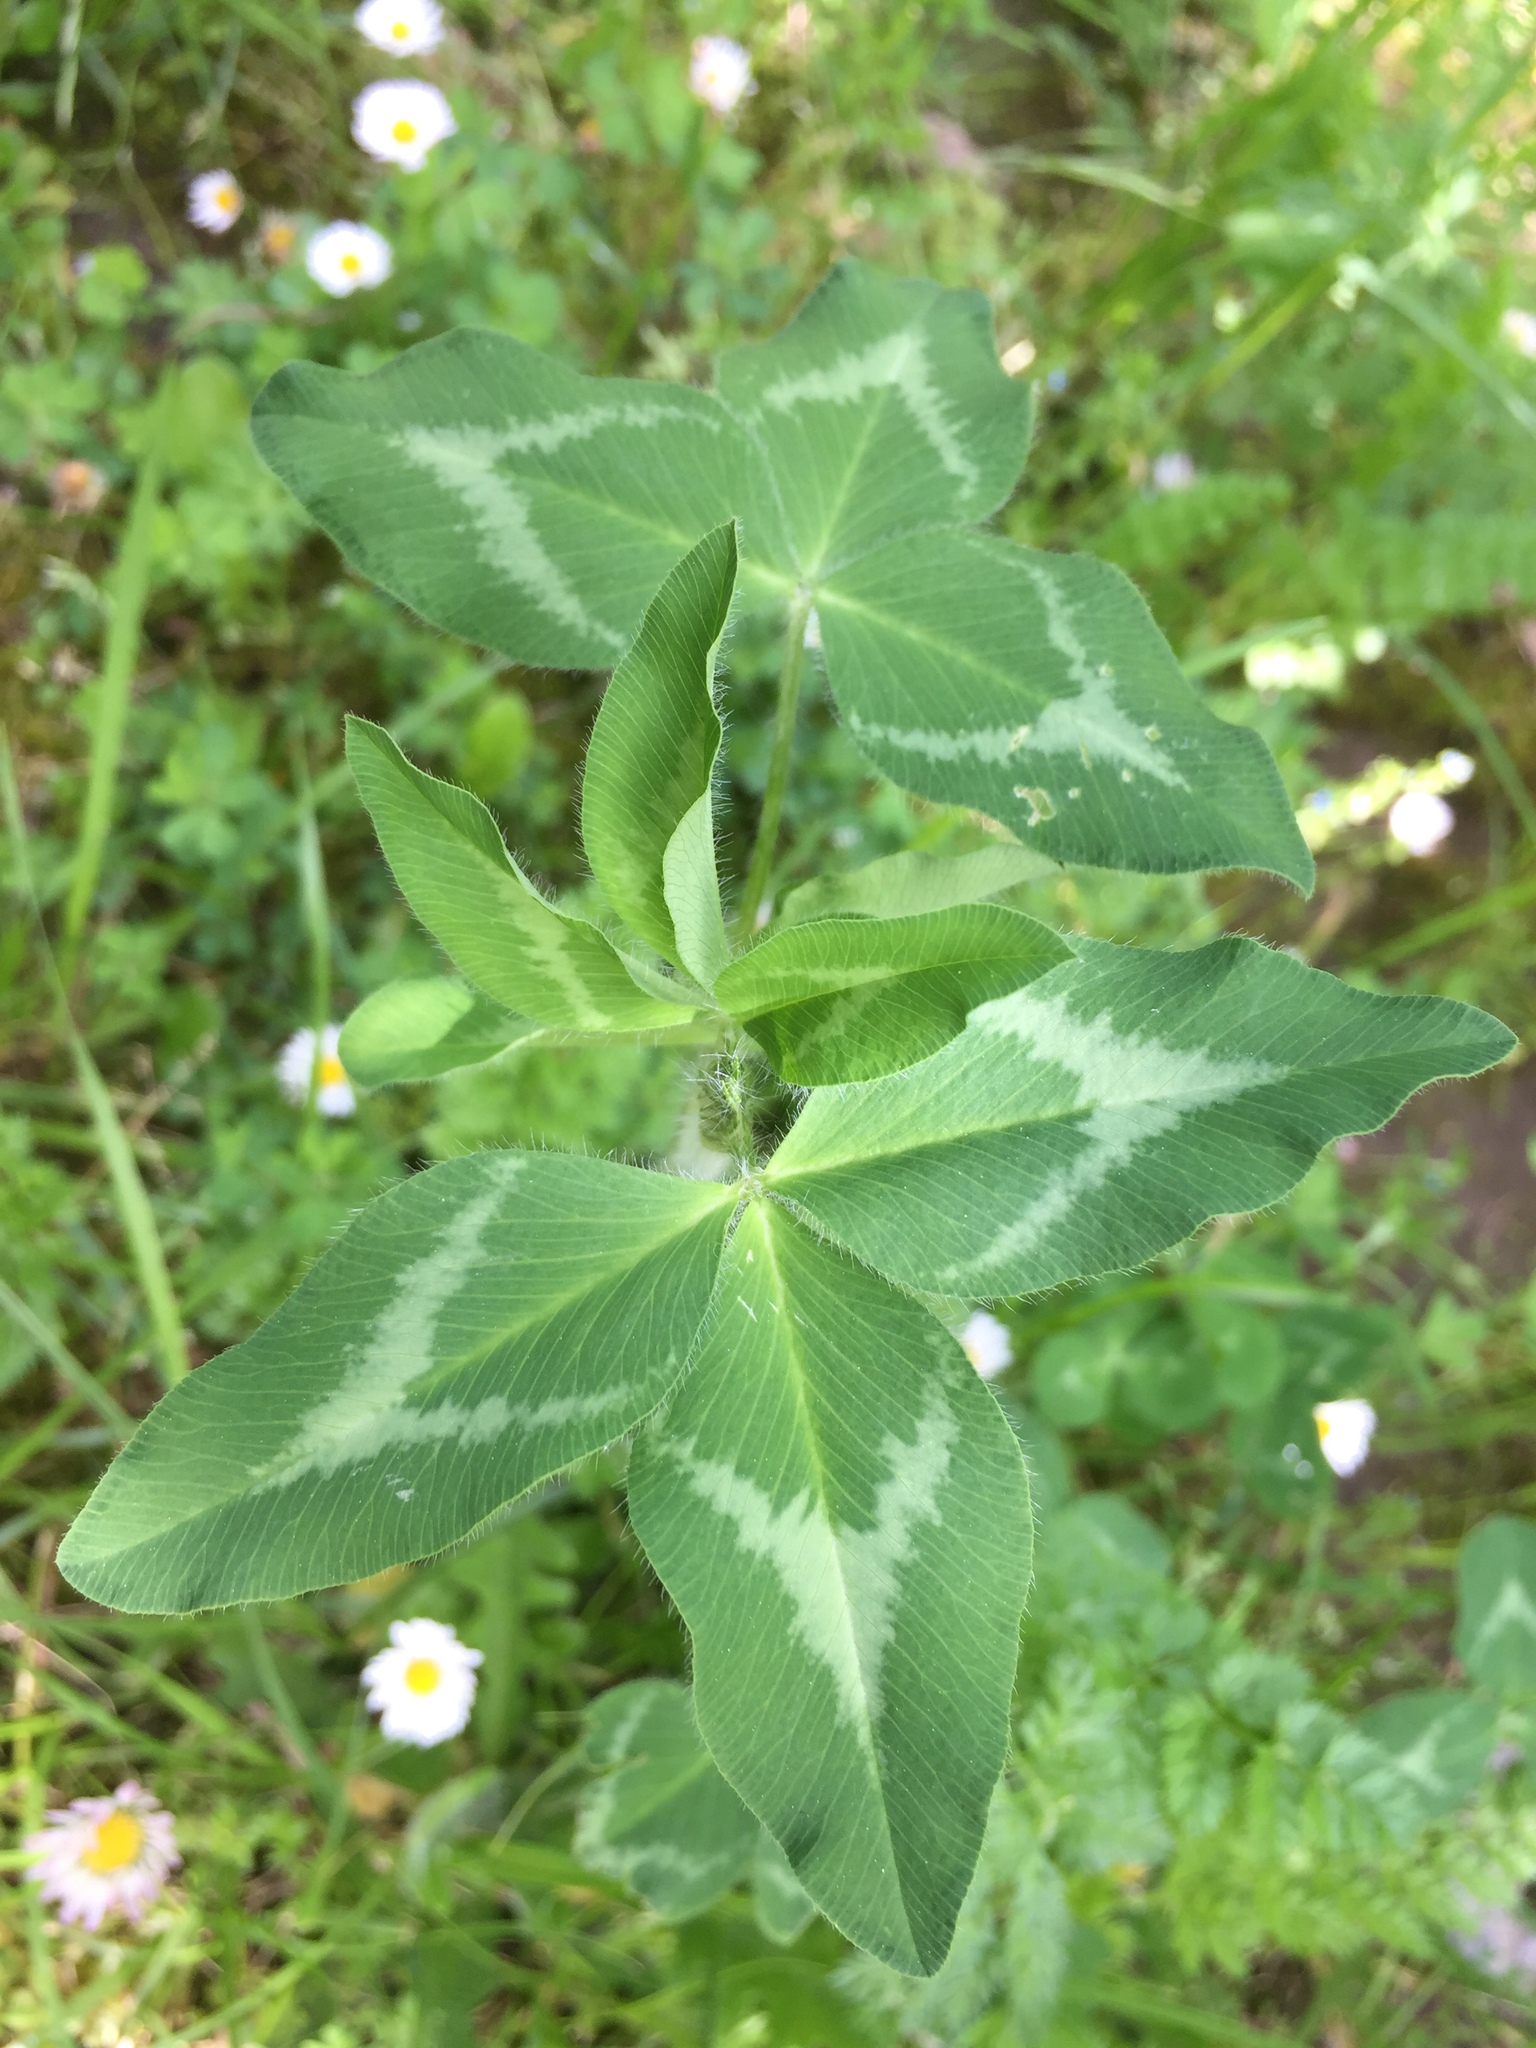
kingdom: Plantae
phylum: Tracheophyta
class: Magnoliopsida
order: Fabales
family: Fabaceae
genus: Trifolium
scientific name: Trifolium pratense
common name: Red clover
